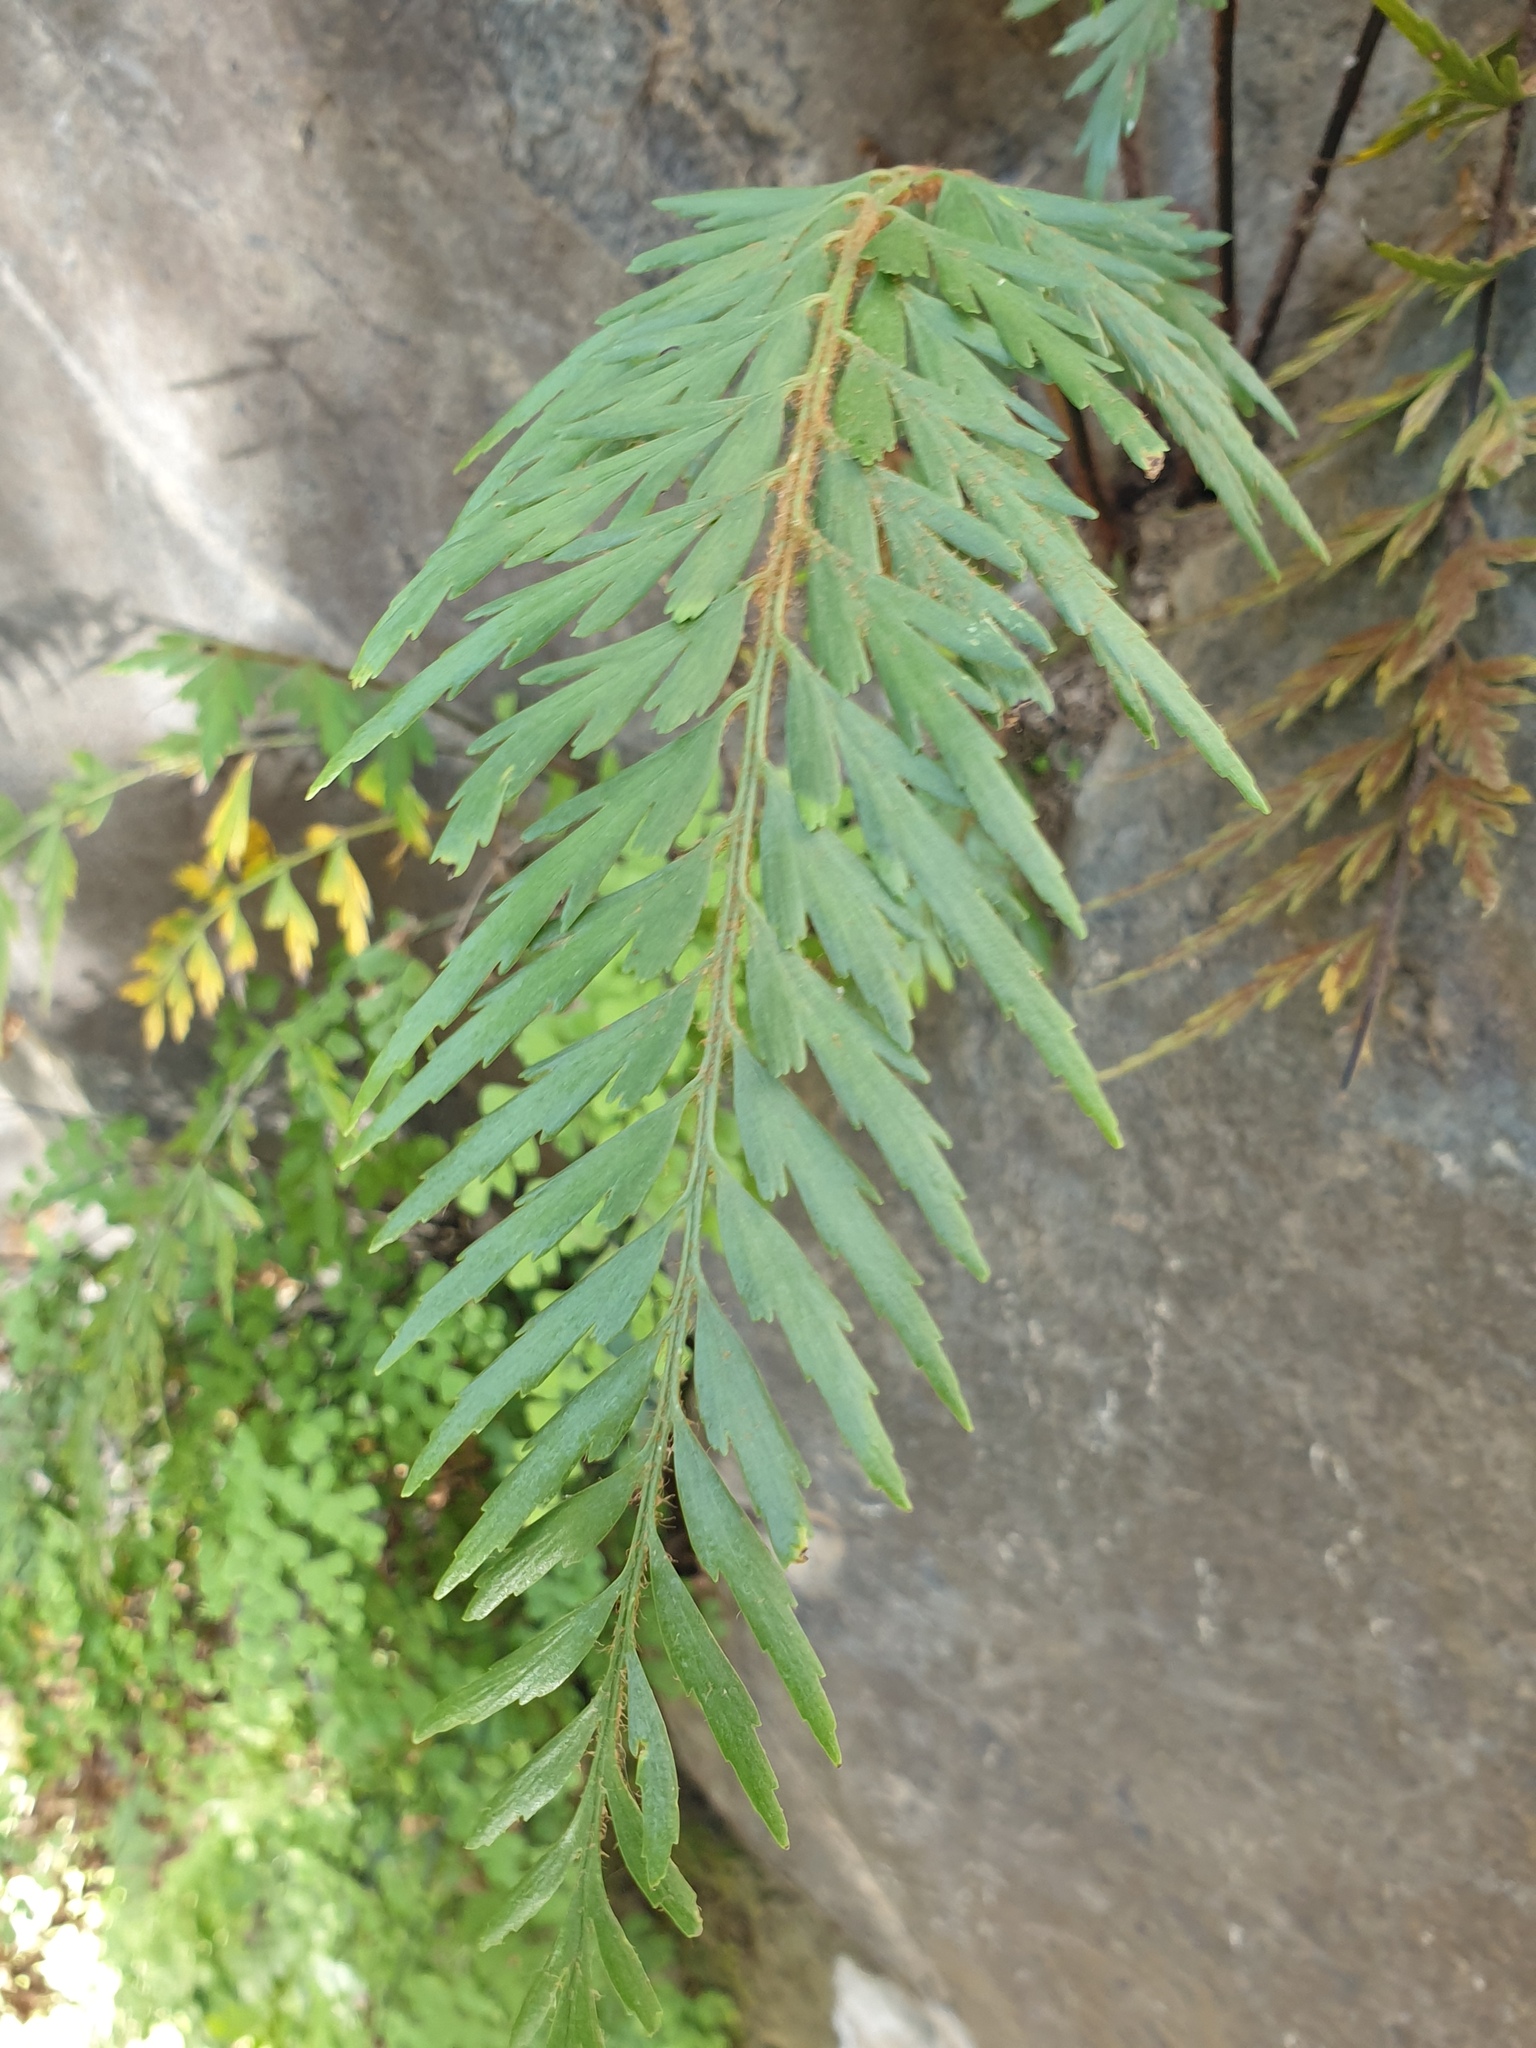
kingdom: Plantae
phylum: Tracheophyta
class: Polypodiopsida
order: Polypodiales
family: Aspleniaceae
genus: Asplenium
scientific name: Asplenium aethiopicum
